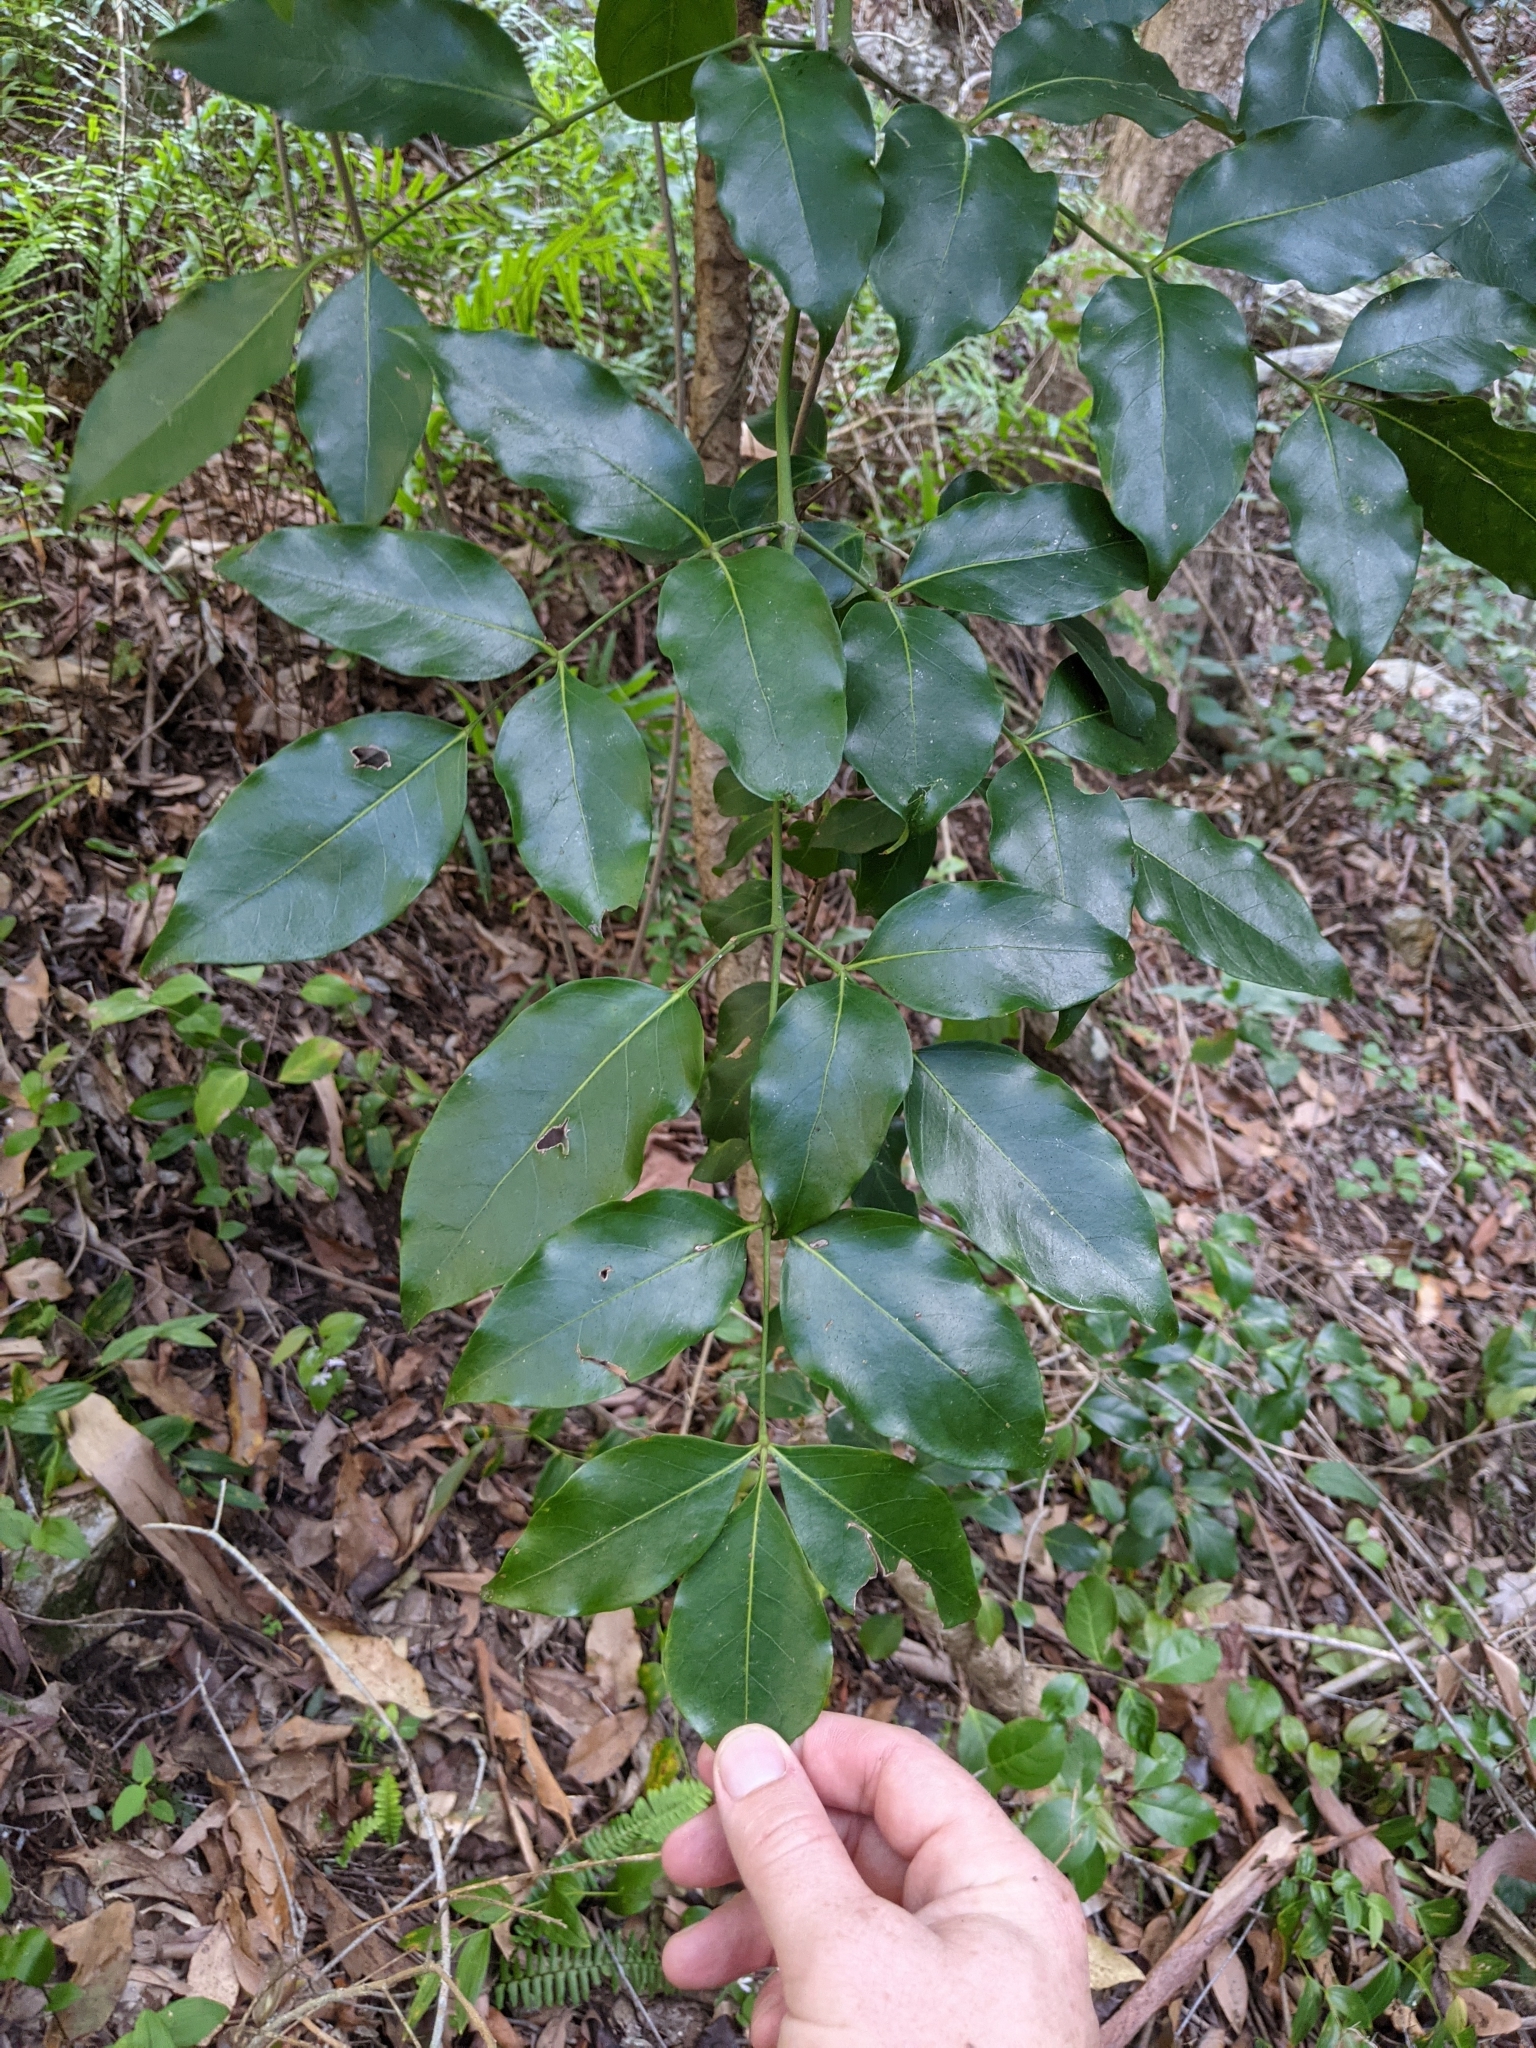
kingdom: Plantae
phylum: Tracheophyta
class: Magnoliopsida
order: Apiales
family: Araliaceae
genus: Polyscias
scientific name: Polyscias elegans
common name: Mowbulan whitewood
